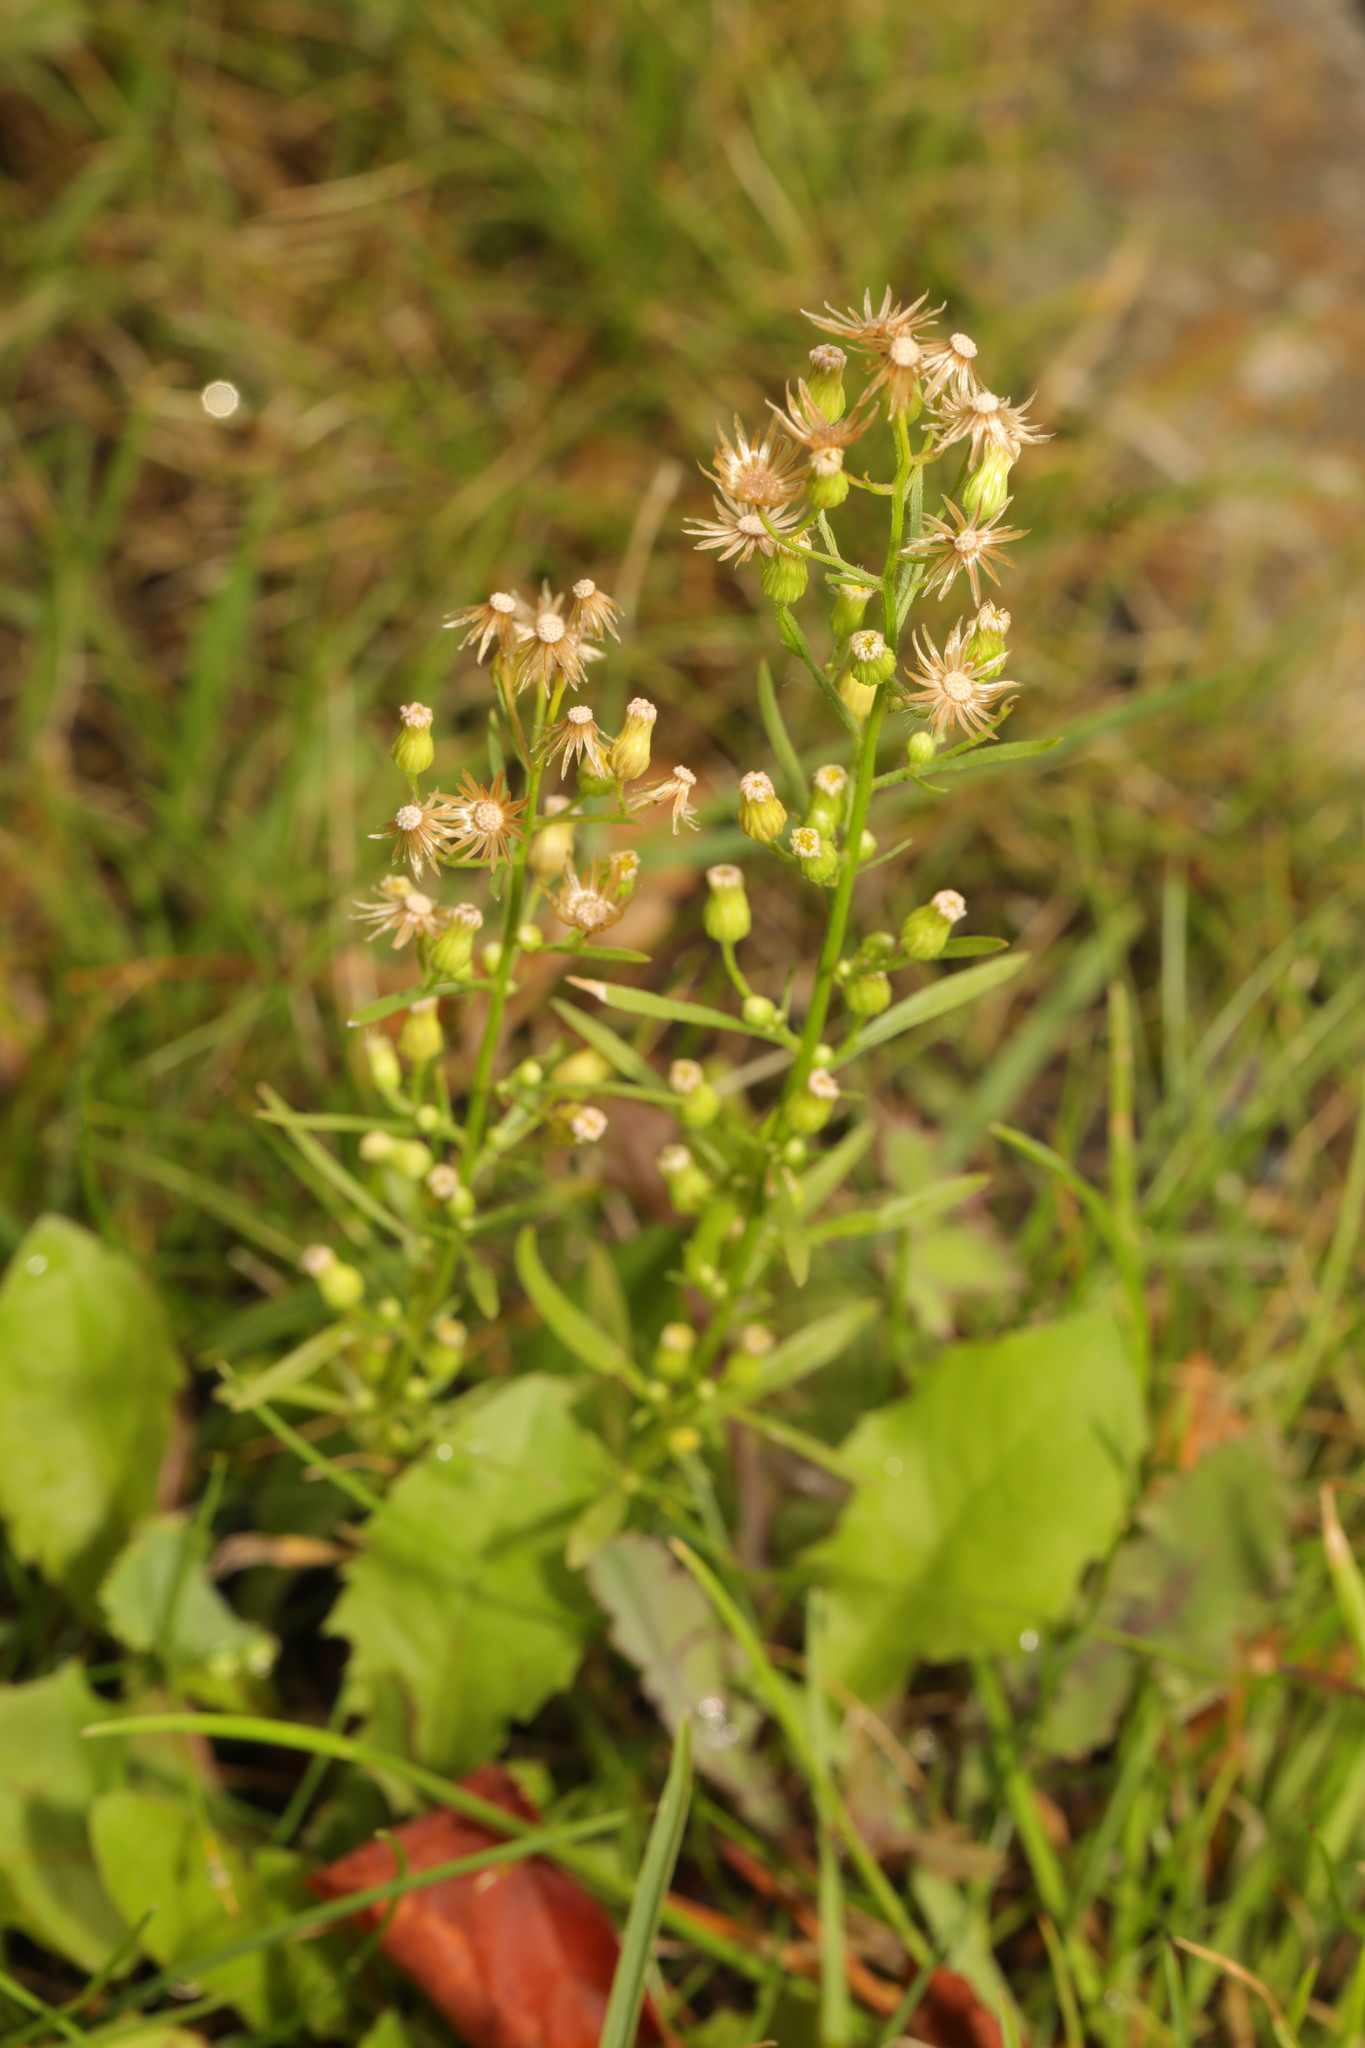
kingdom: Plantae
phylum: Tracheophyta
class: Magnoliopsida
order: Asterales
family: Asteraceae
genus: Erigeron
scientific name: Erigeron canadensis
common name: Canadian fleabane
